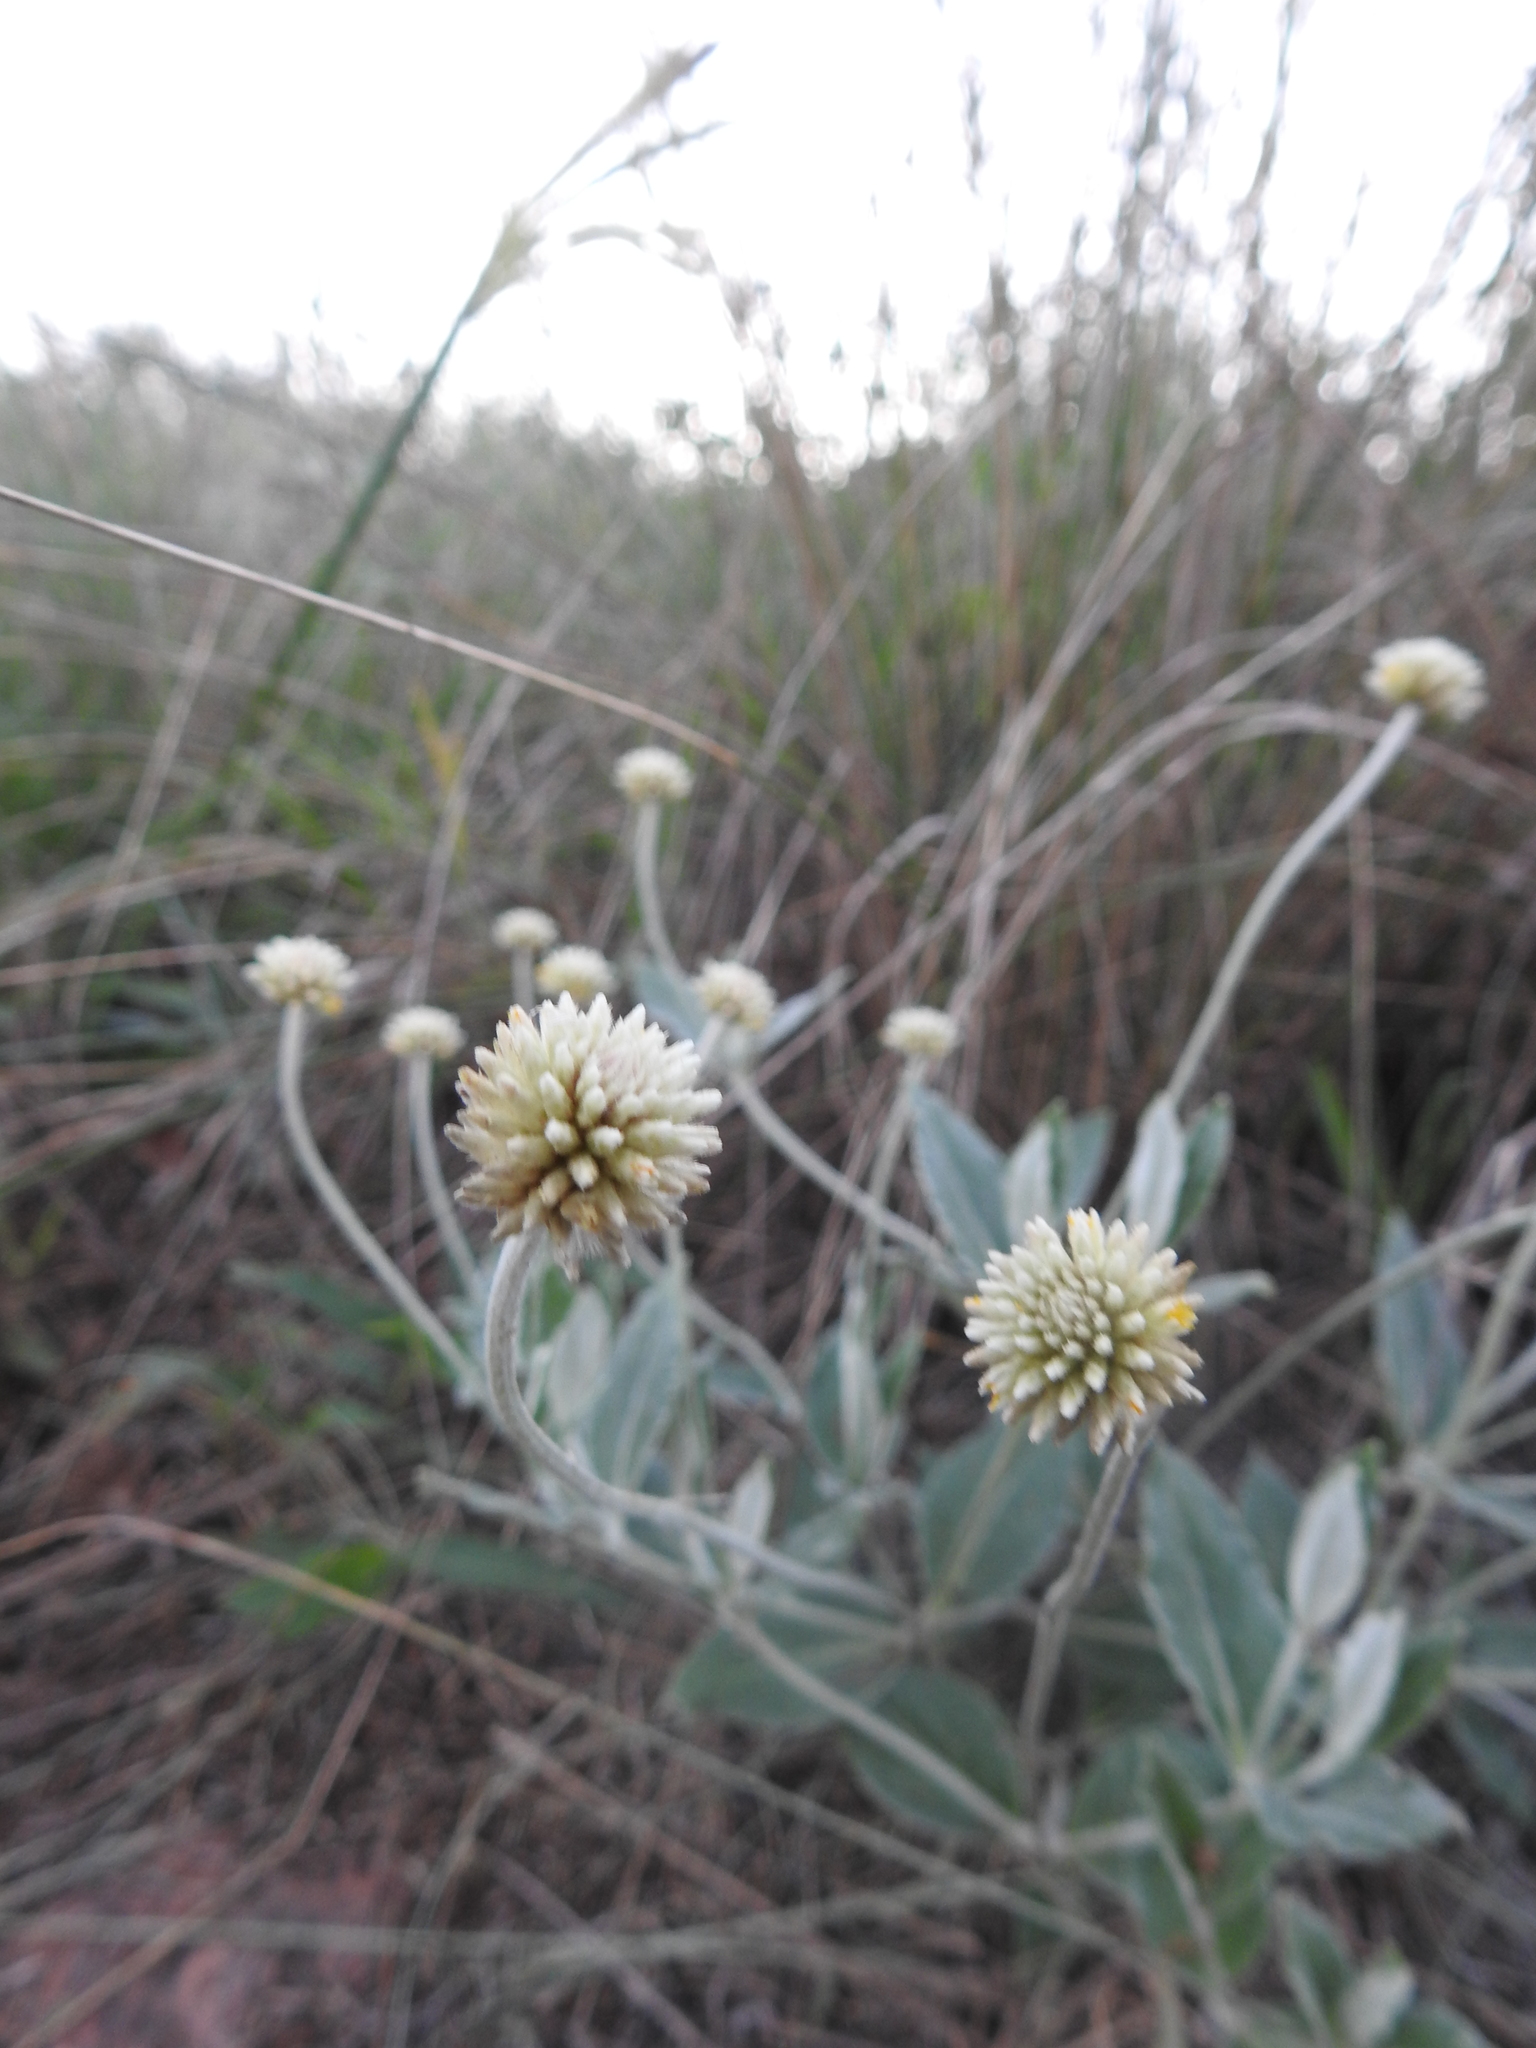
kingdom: Plantae
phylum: Tracheophyta
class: Magnoliopsida
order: Caryophyllales
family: Amaranthaceae
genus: Pfaffia
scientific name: Pfaffia gnaphalioides
